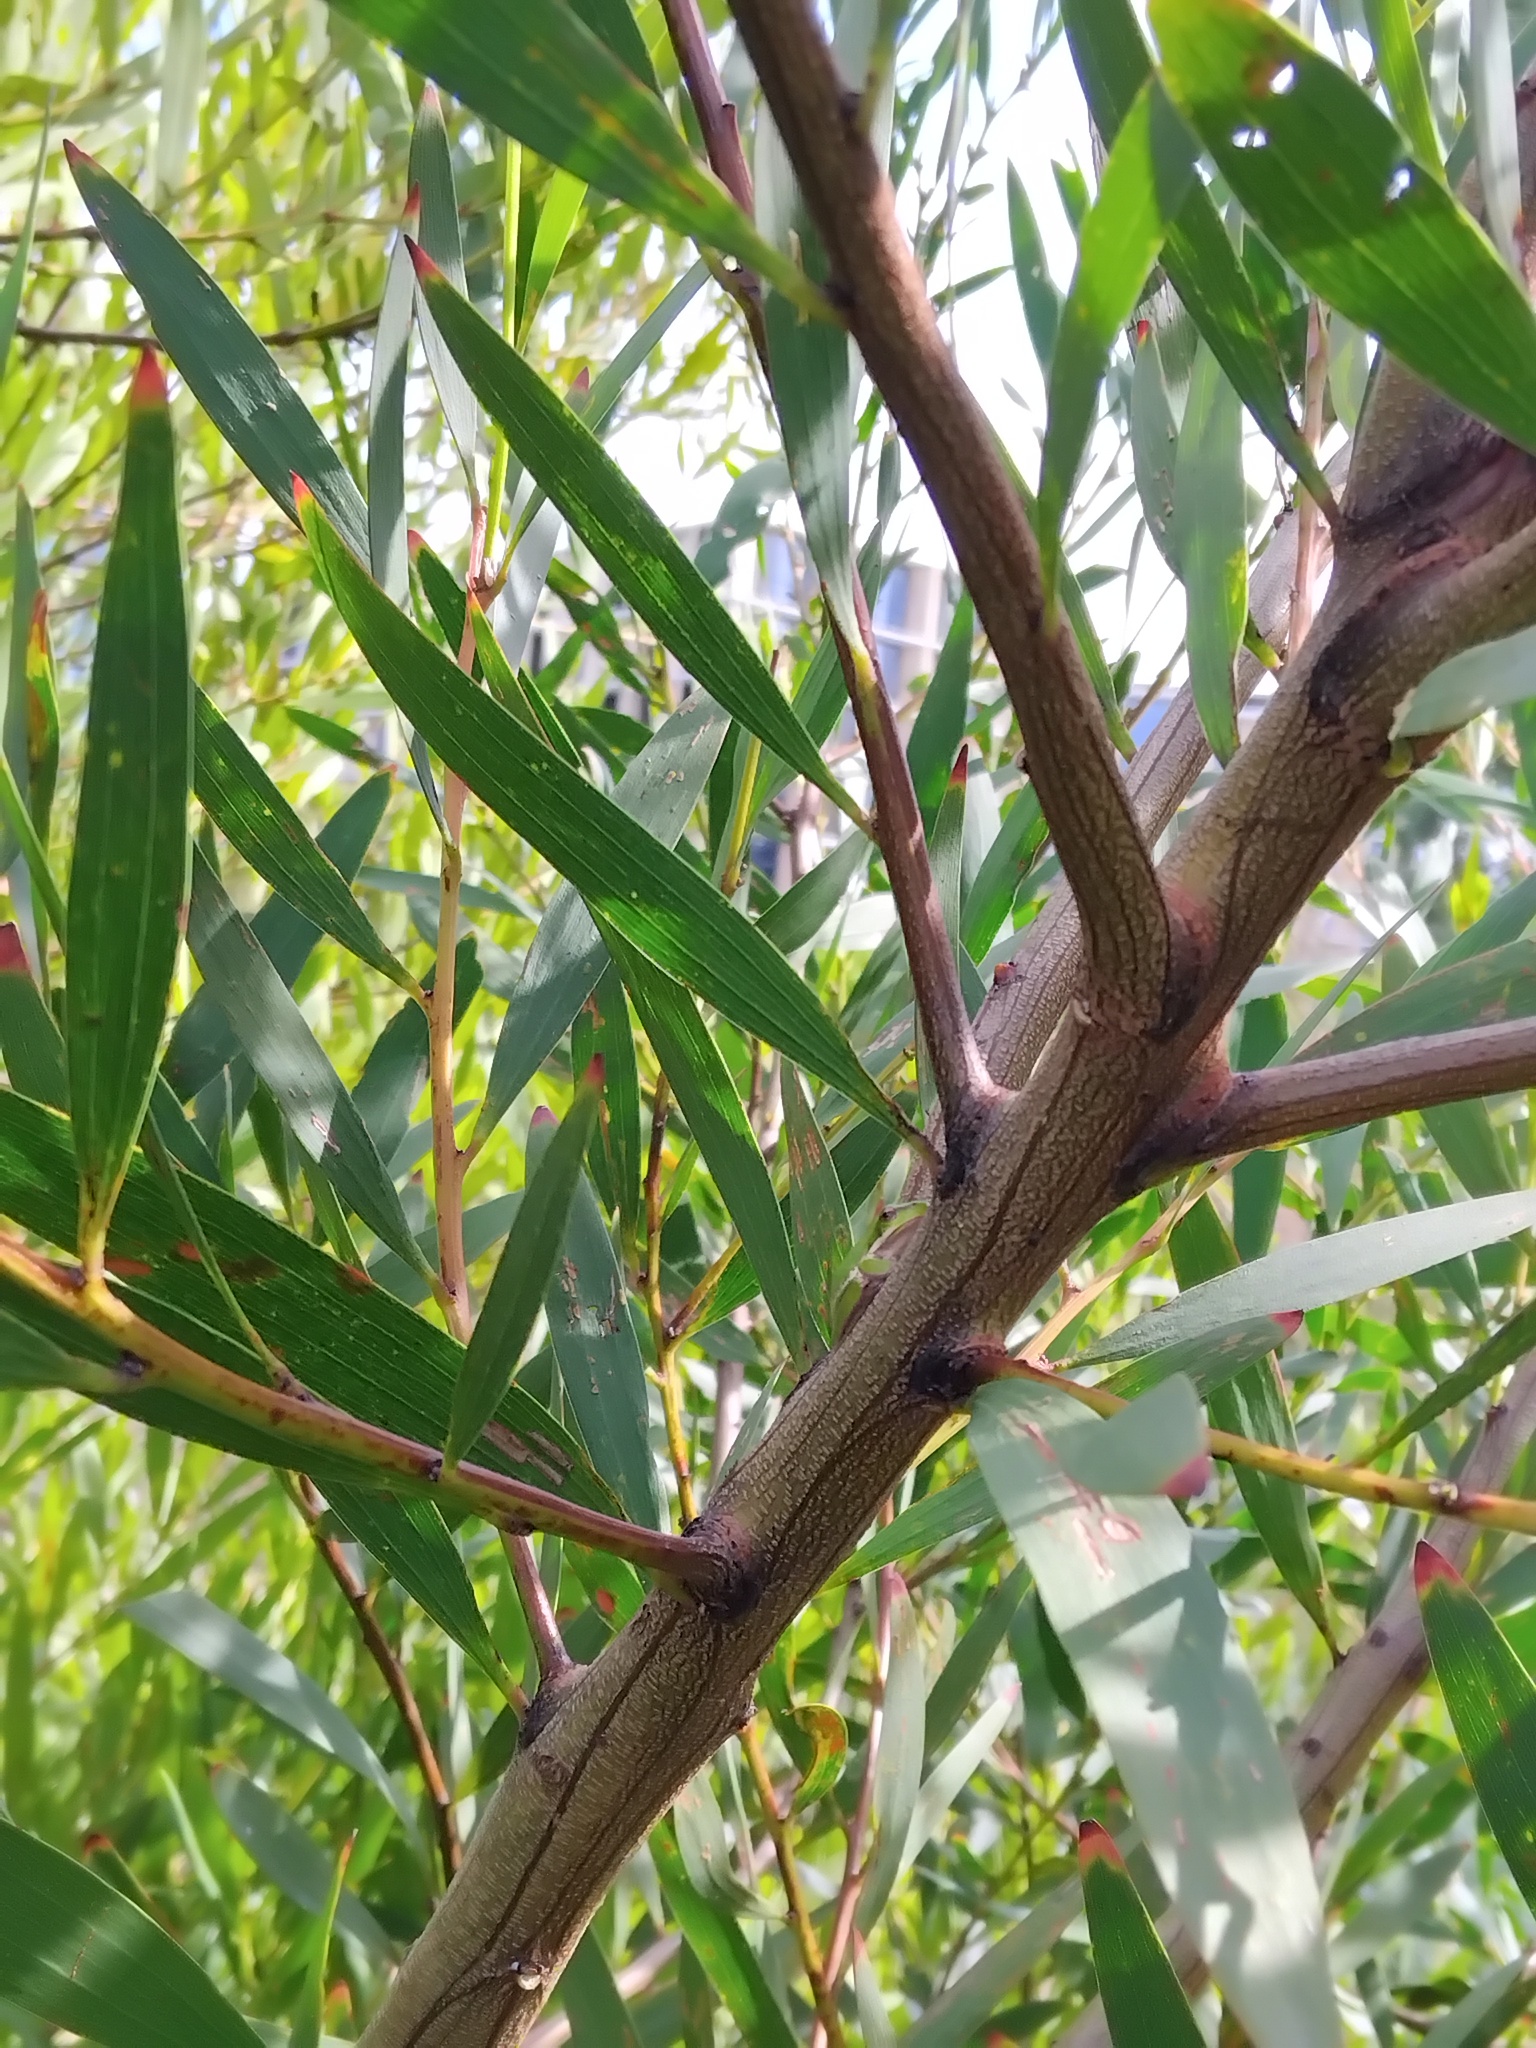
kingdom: Animalia
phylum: Chordata
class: Amphibia
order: Anura
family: Pelodryadidae
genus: Litoria
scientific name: Litoria fallax
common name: Eastern dwarf treefrog
